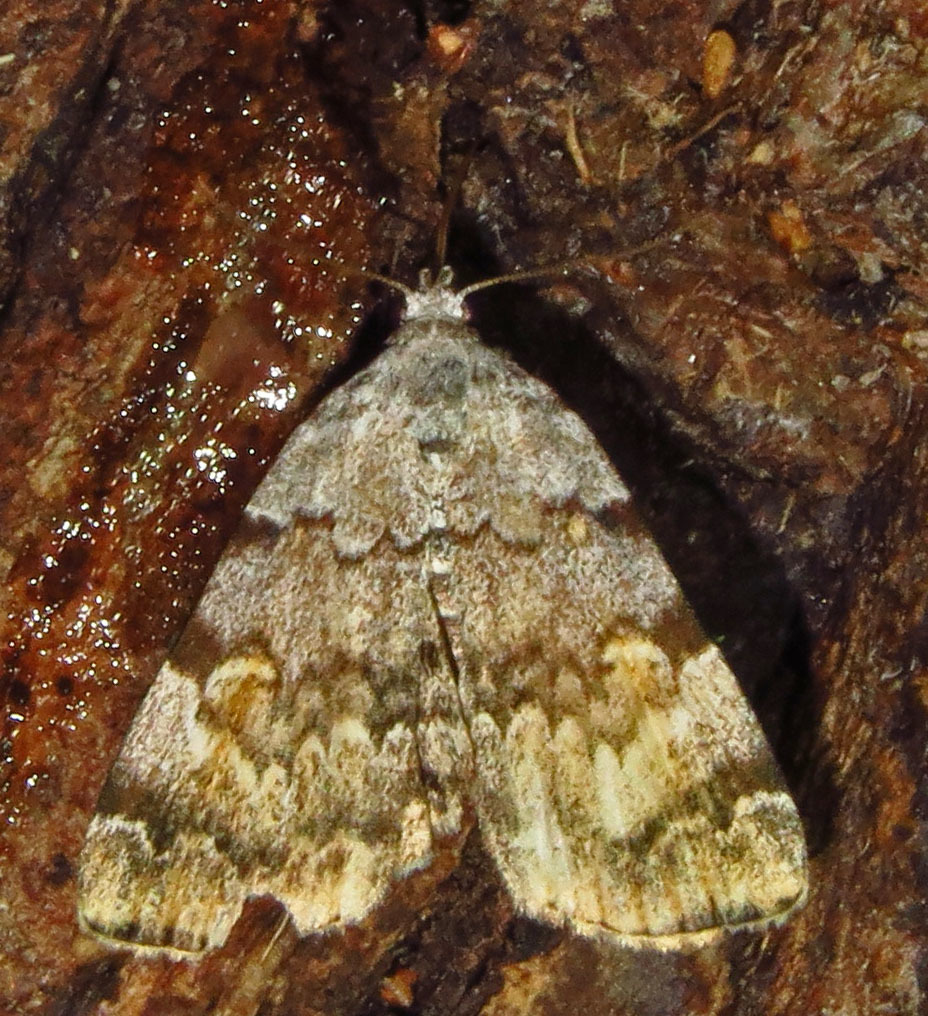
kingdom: Animalia
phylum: Arthropoda
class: Insecta
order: Lepidoptera
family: Erebidae
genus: Idia
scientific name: Idia americalis
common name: American idia moth
